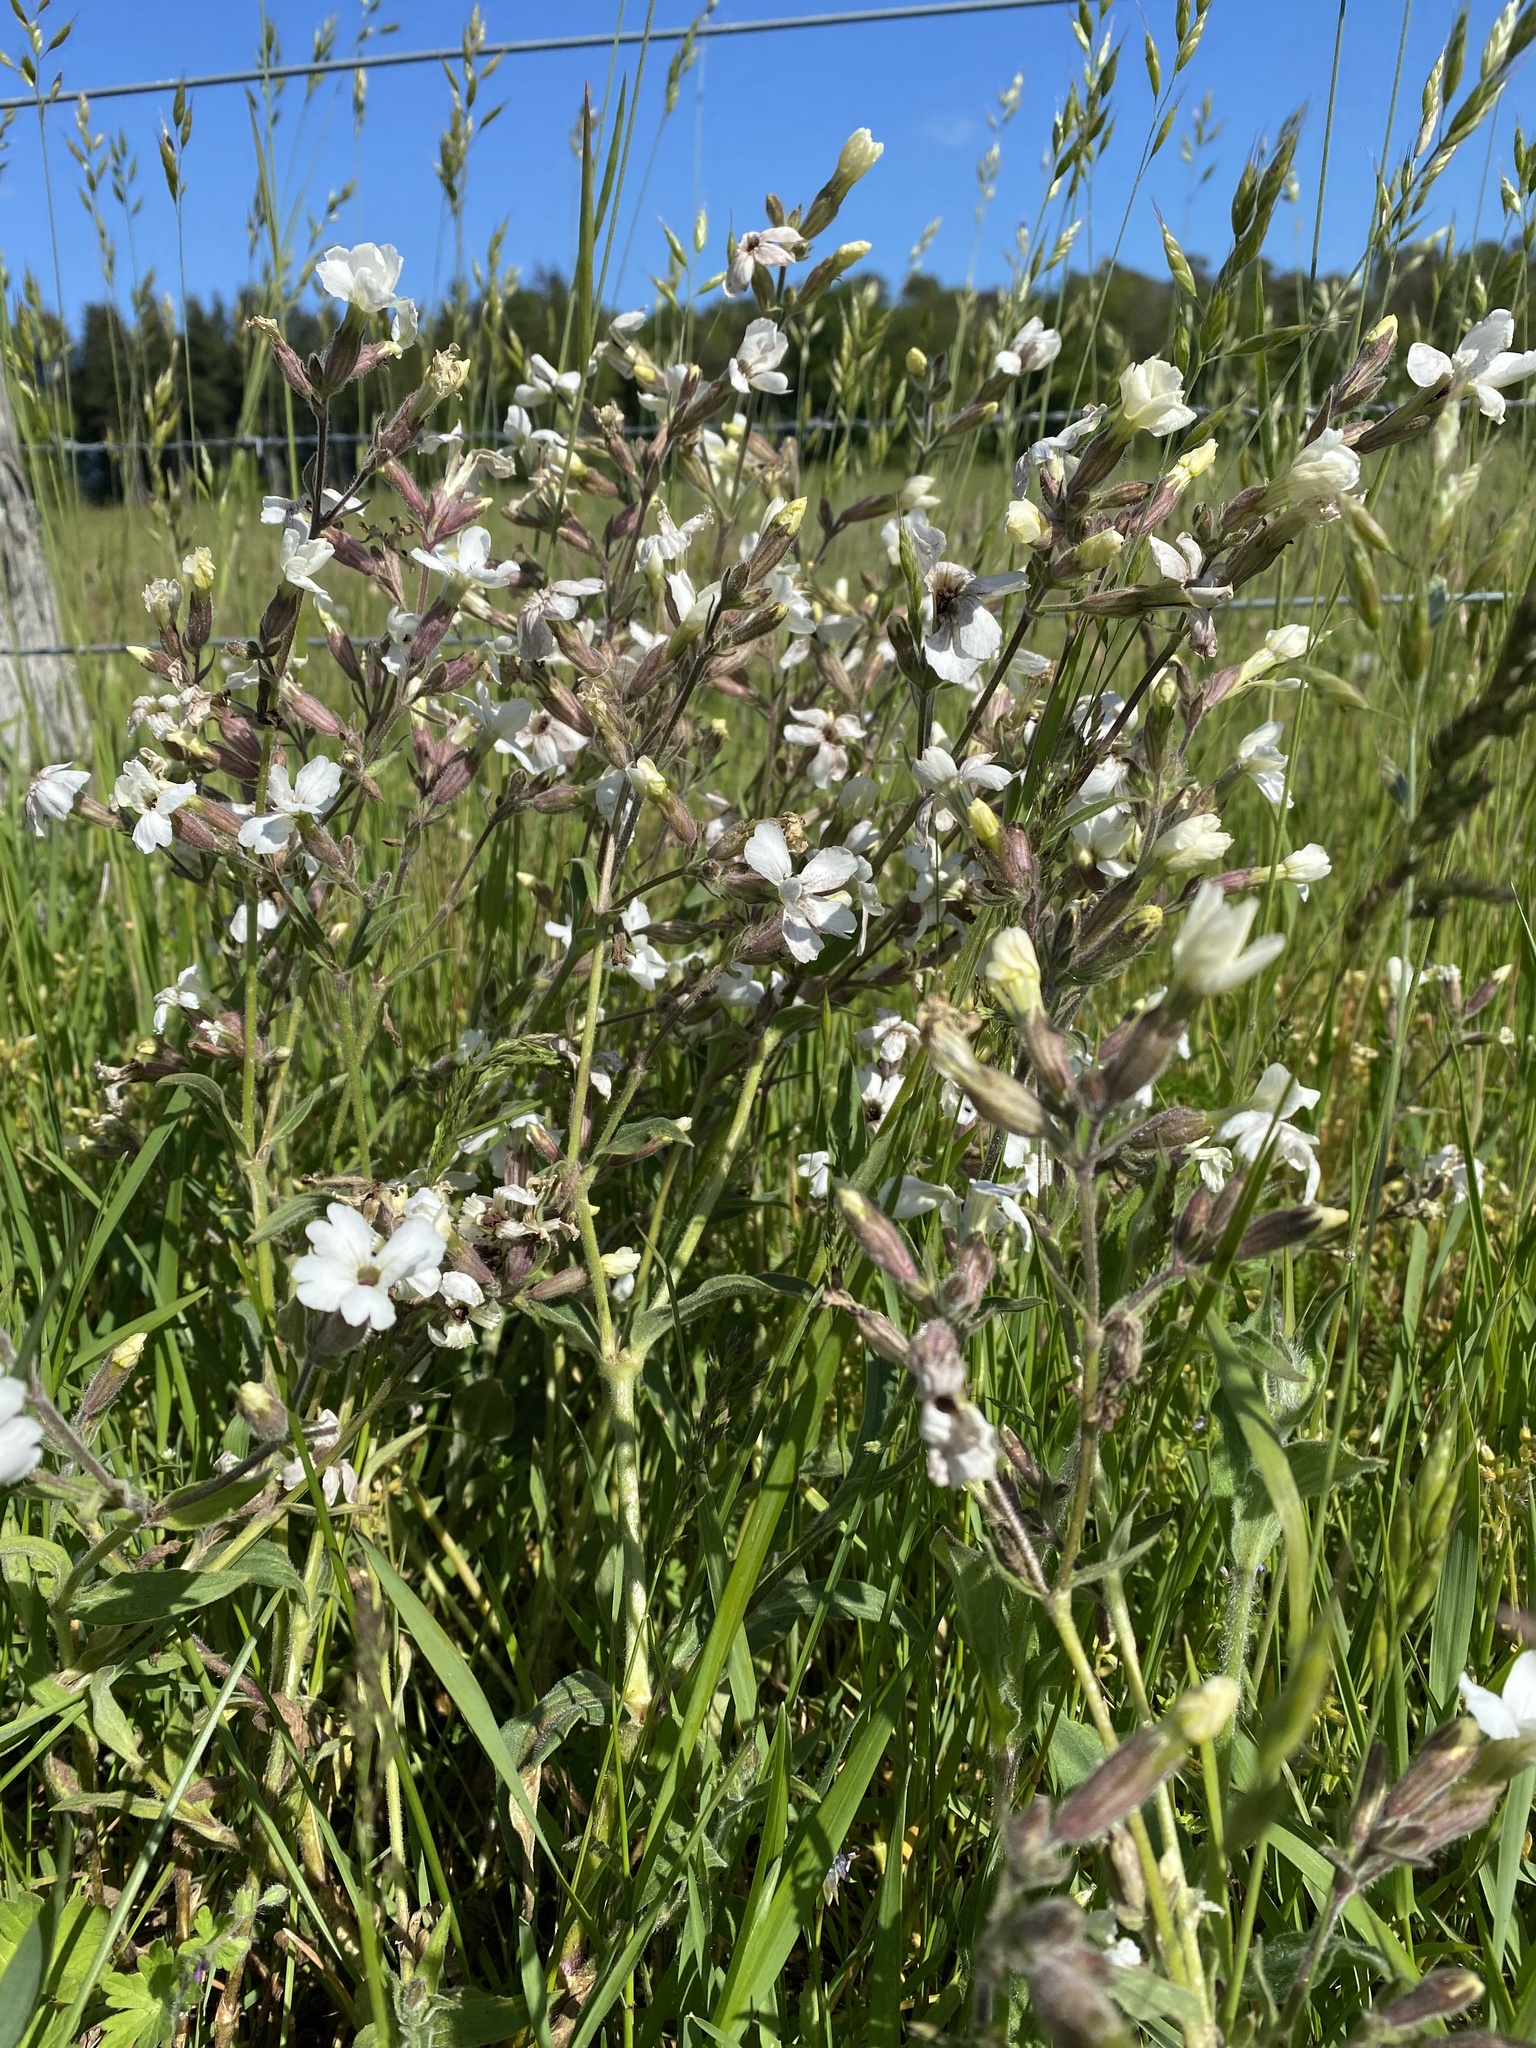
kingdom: Plantae
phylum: Tracheophyta
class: Magnoliopsida
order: Caryophyllales
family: Caryophyllaceae
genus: Silene
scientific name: Silene latifolia
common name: White campion
